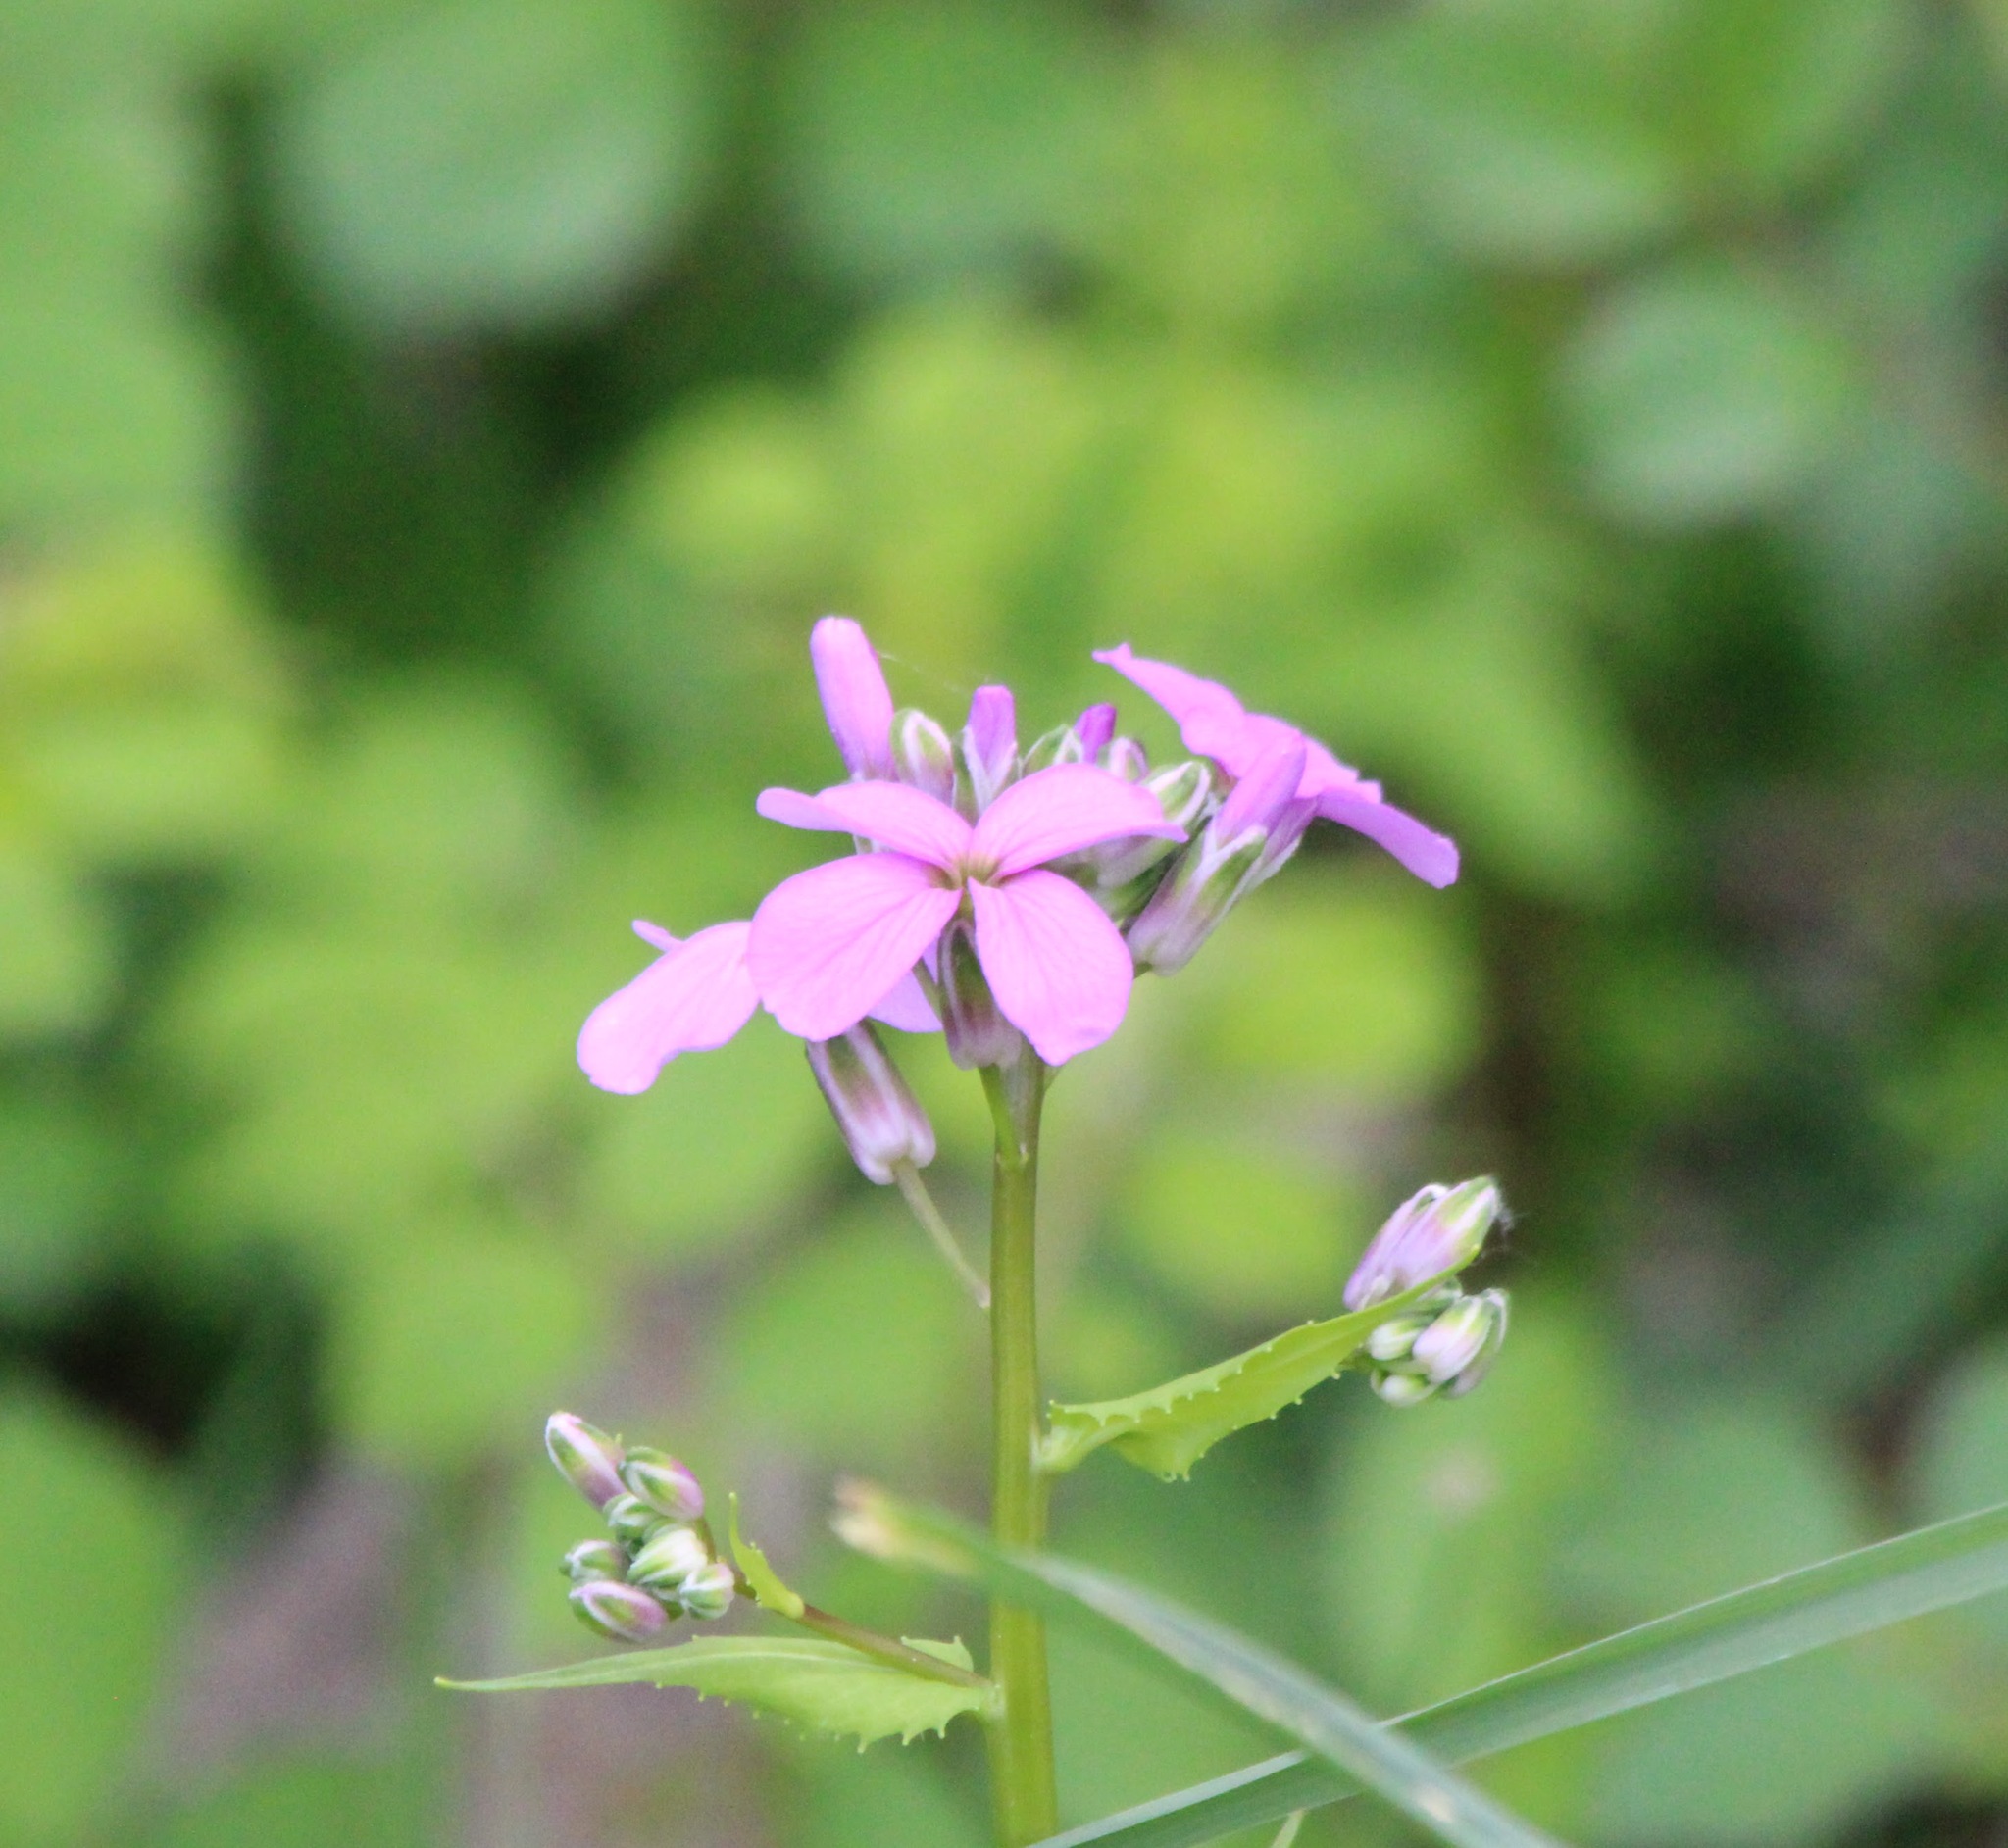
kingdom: Plantae
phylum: Tracheophyta
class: Magnoliopsida
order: Brassicales
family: Brassicaceae
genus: Hesperis
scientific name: Hesperis matronalis
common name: Dame's-violet
